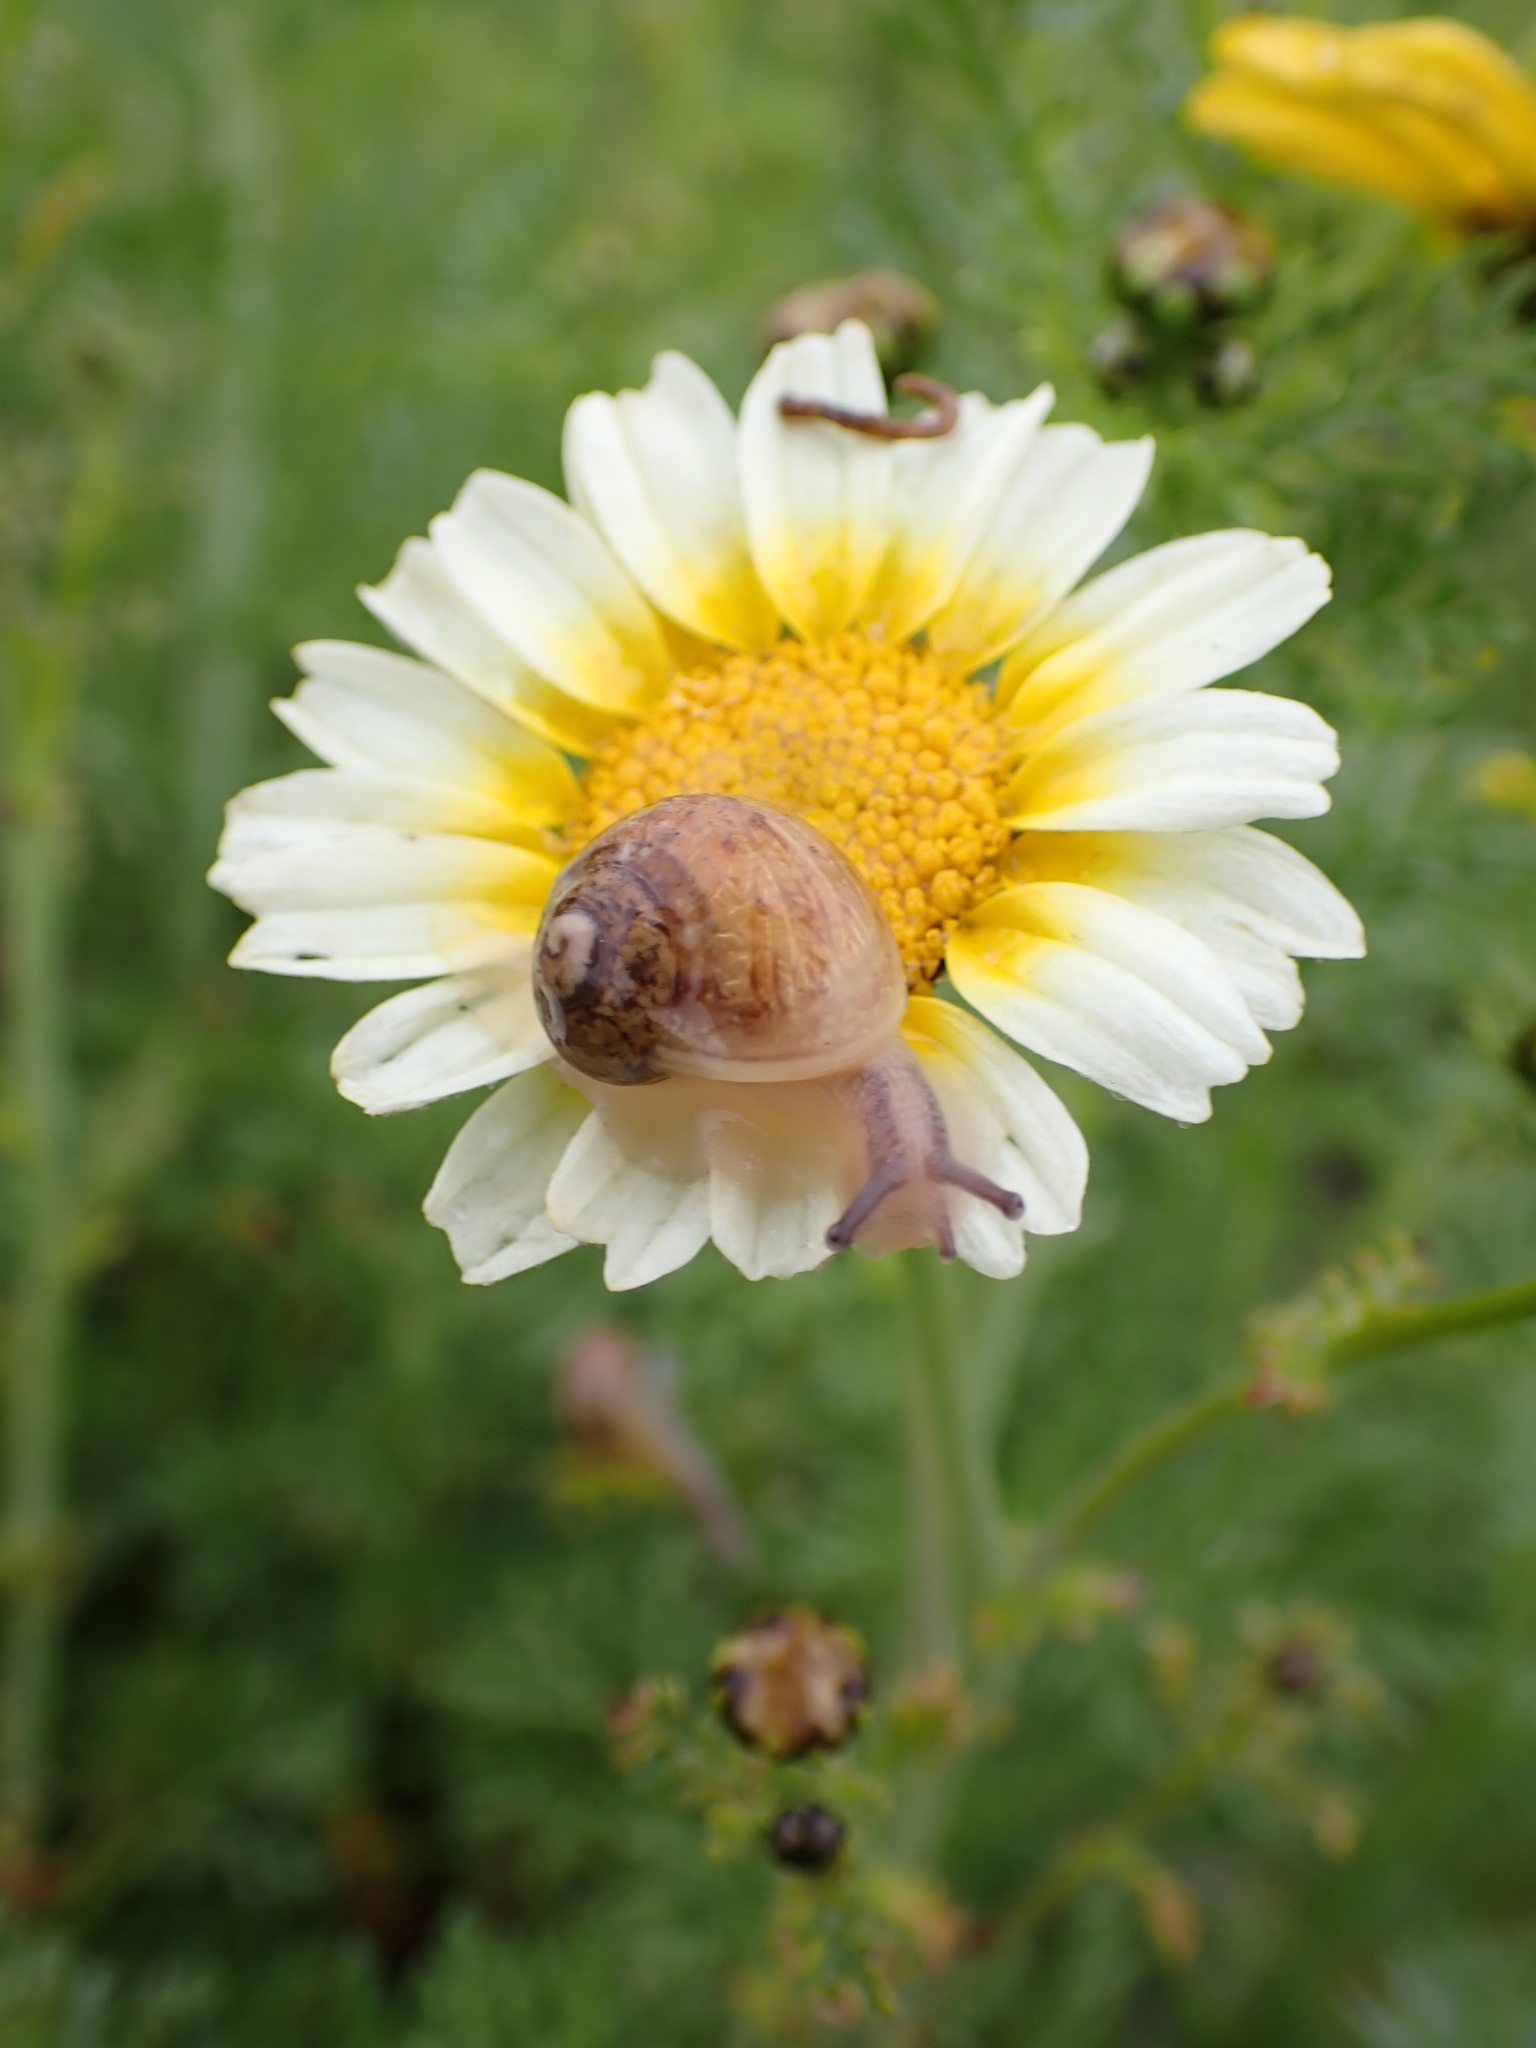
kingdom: Animalia
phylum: Mollusca
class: Gastropoda
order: Stylommatophora
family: Helicidae
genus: Cornu
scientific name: Cornu aspersum
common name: Brown garden snail
